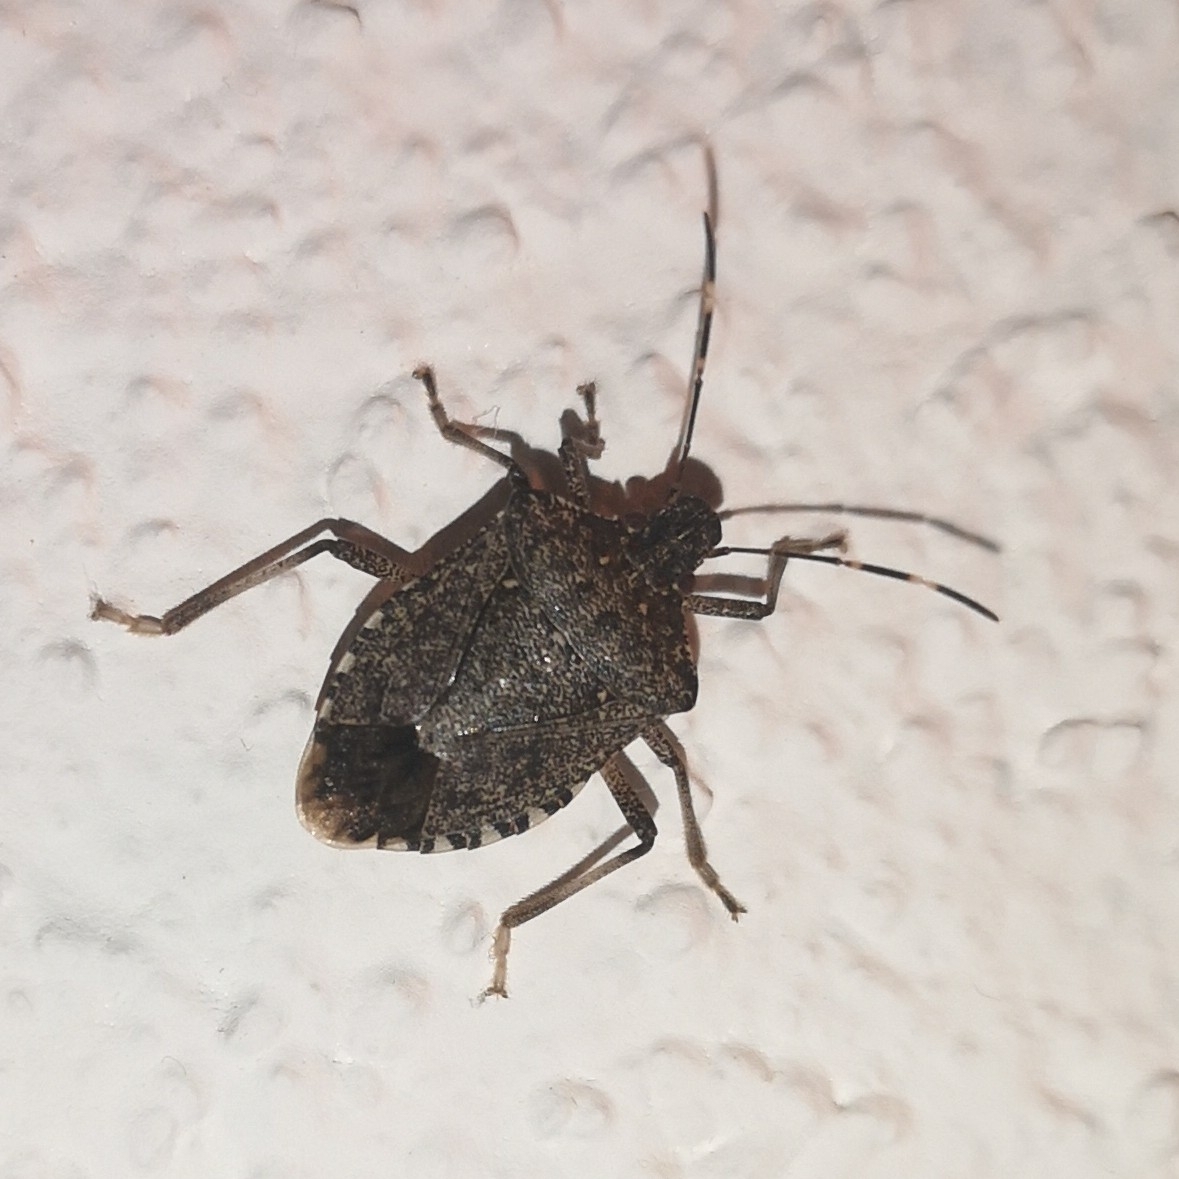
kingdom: Animalia
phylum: Arthropoda
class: Insecta
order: Hemiptera
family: Pentatomidae
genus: Halyomorpha
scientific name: Halyomorpha halys
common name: Brown marmorated stink bug
